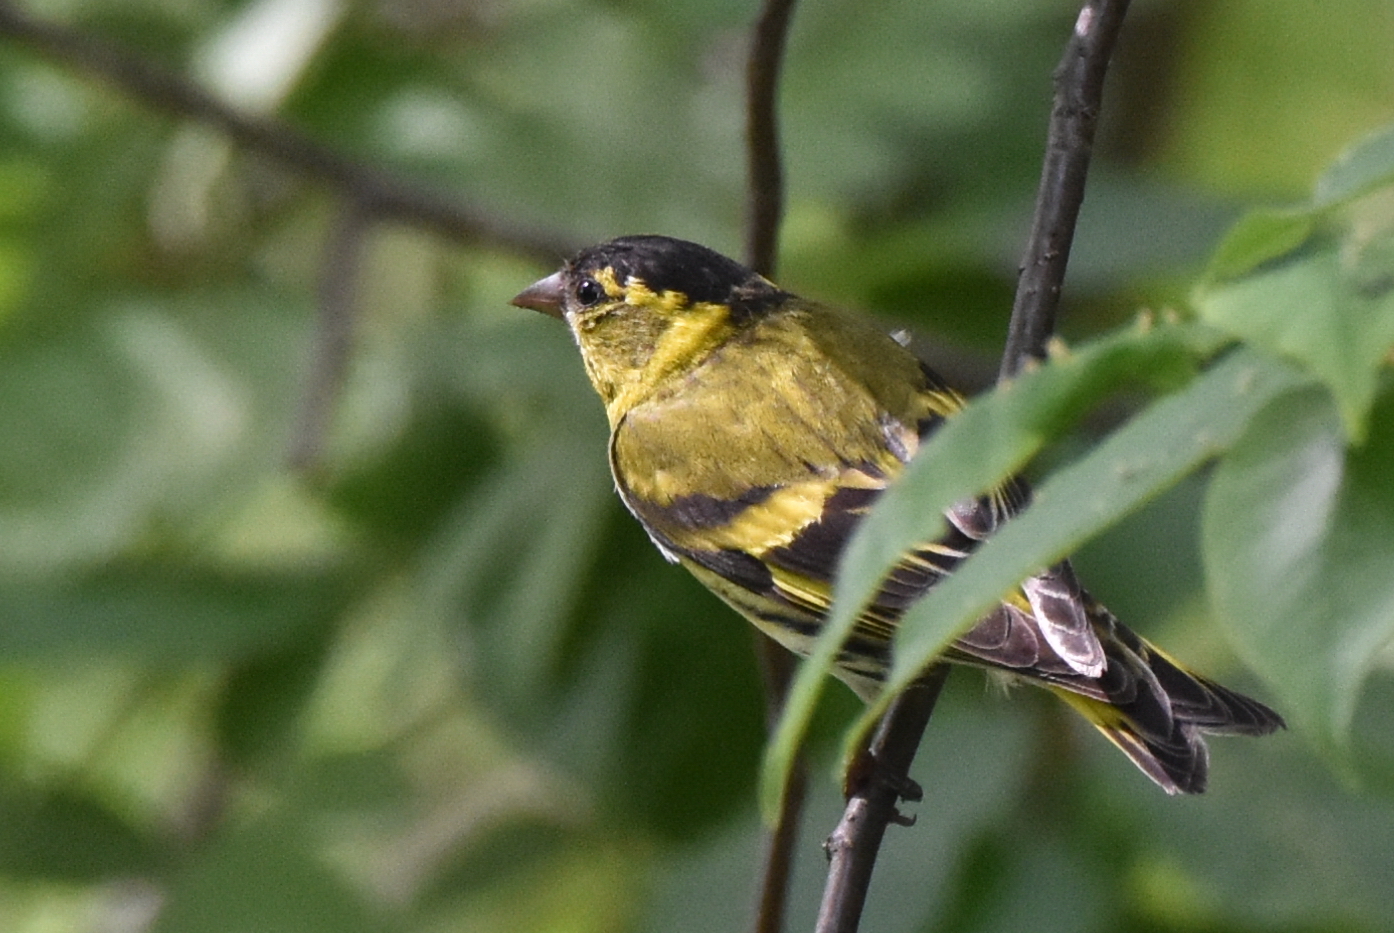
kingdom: Animalia
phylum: Chordata
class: Aves
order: Passeriformes
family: Fringillidae
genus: Spinus
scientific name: Spinus spinus
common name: Eurasian siskin
